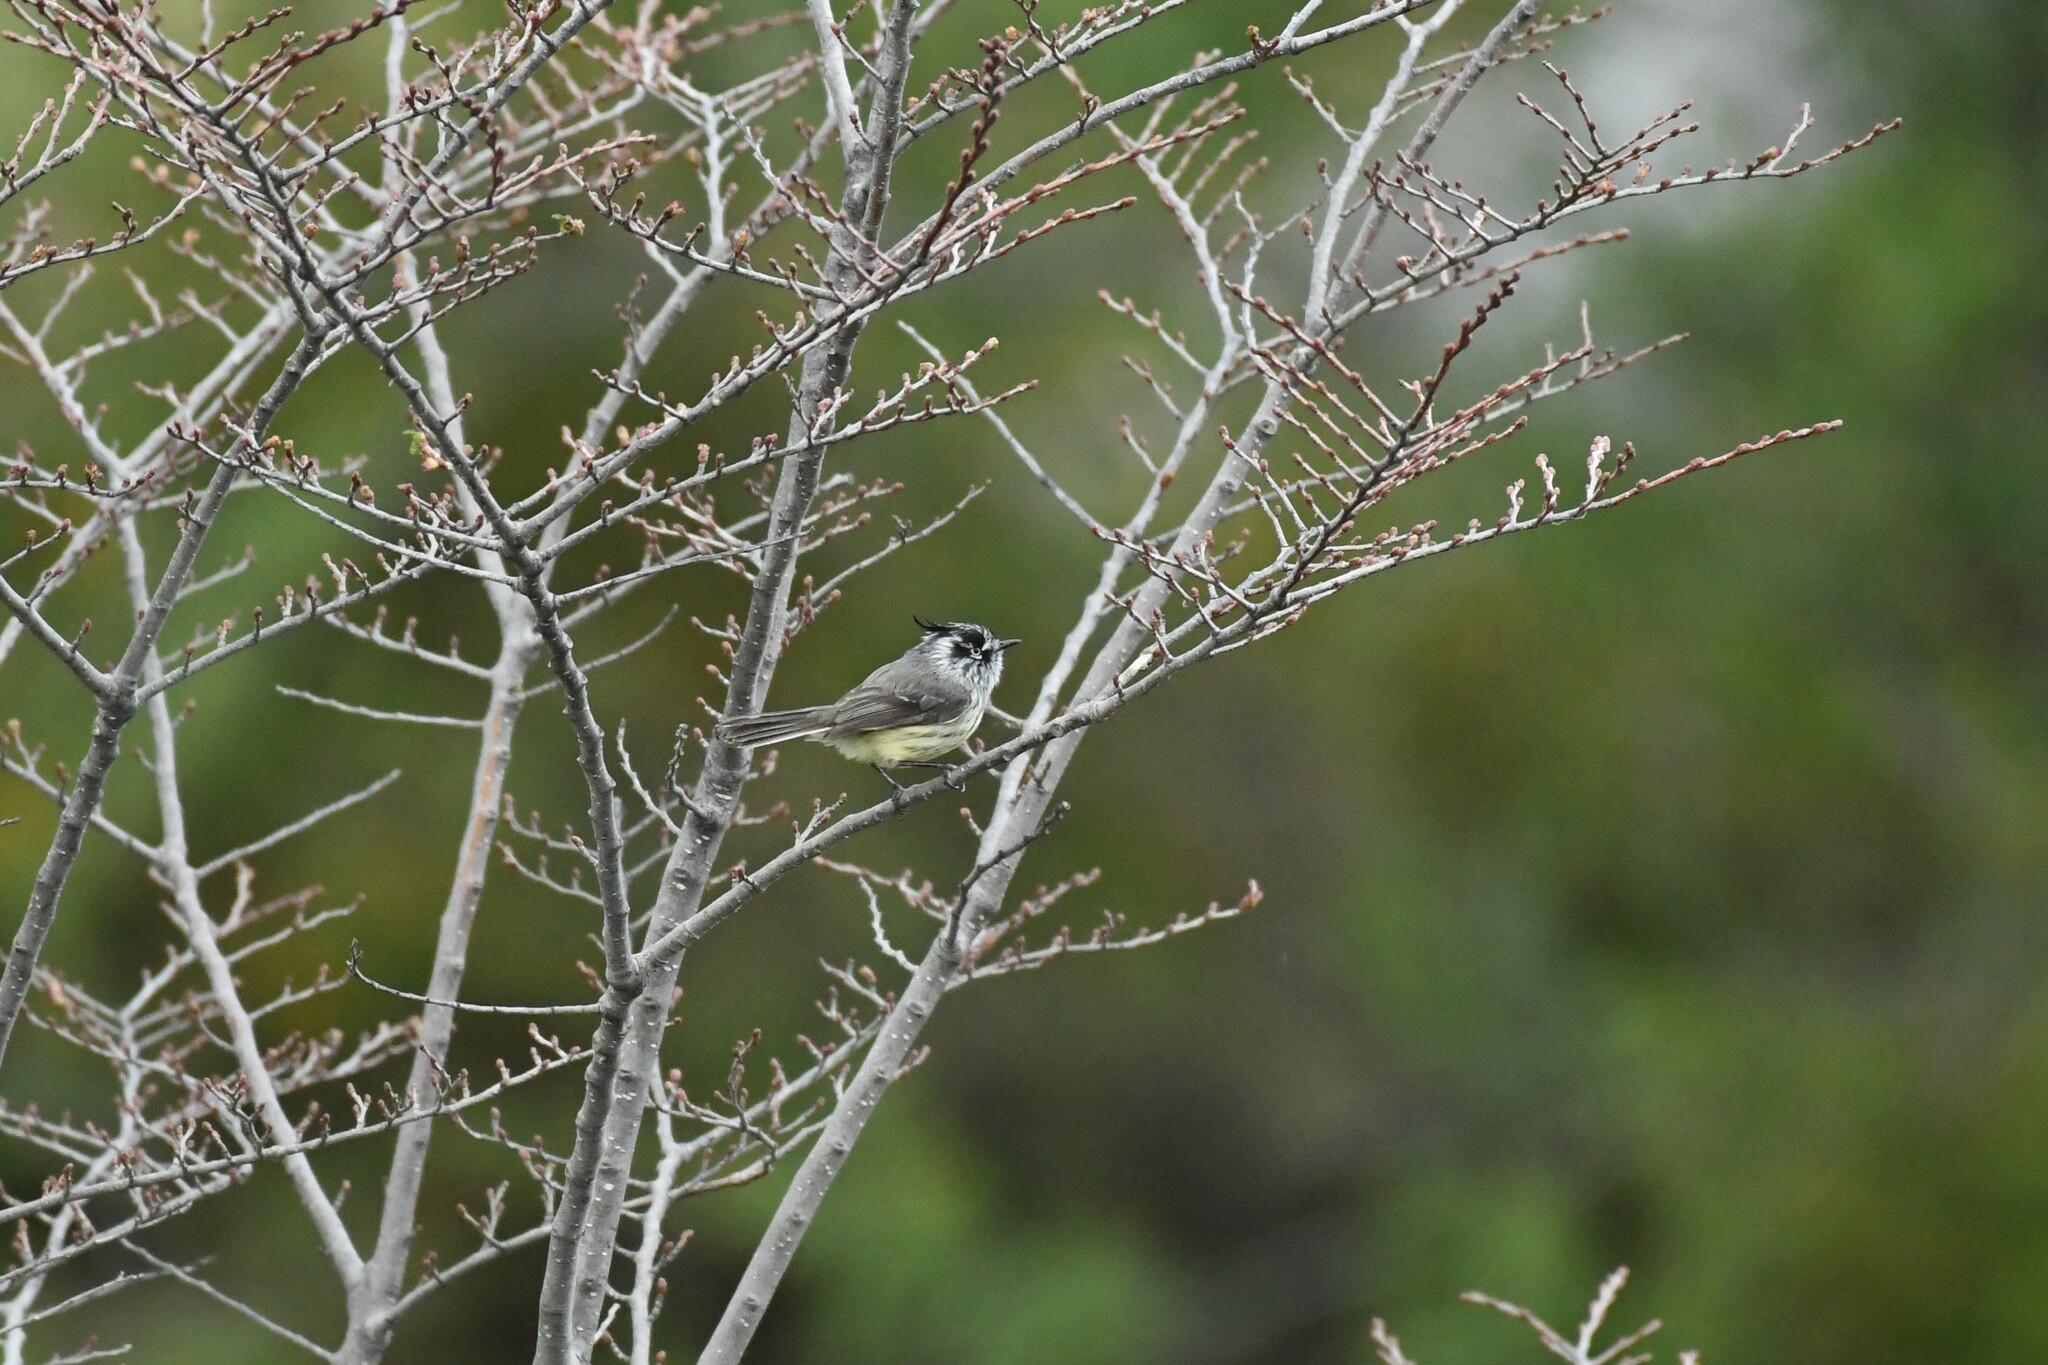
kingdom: Animalia
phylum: Chordata
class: Aves
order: Passeriformes
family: Tyrannidae
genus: Anairetes
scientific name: Anairetes parulus
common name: Tufted tit-tyrant
